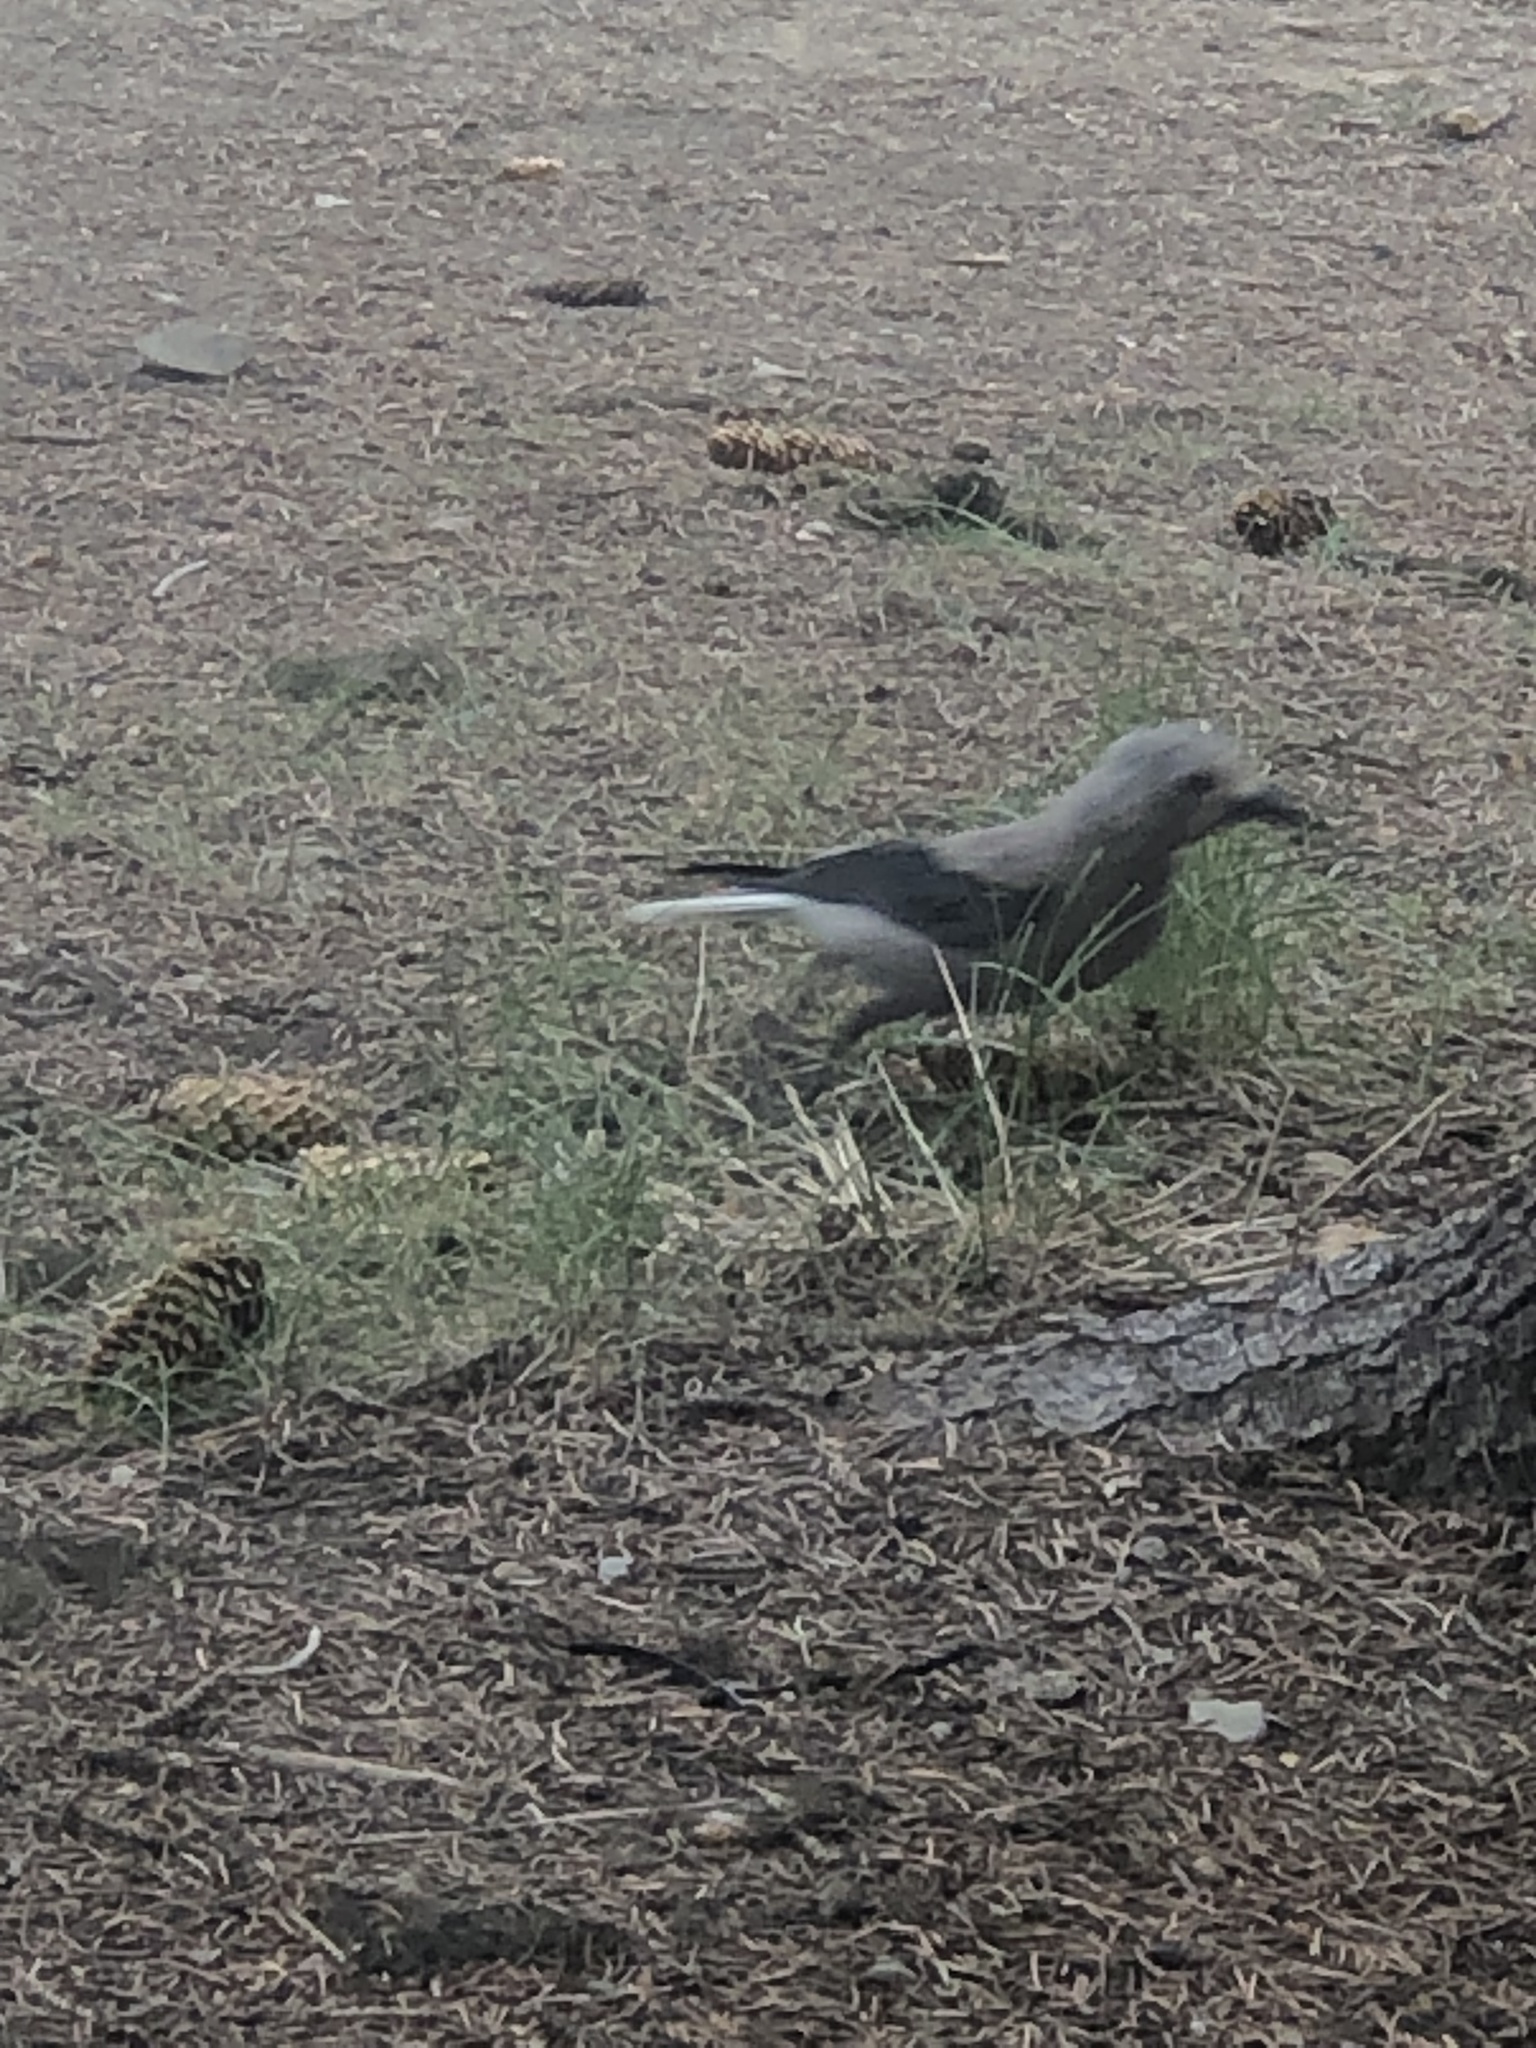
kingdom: Animalia
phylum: Chordata
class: Aves
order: Passeriformes
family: Corvidae
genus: Nucifraga
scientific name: Nucifraga columbiana
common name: Clark's nutcracker
